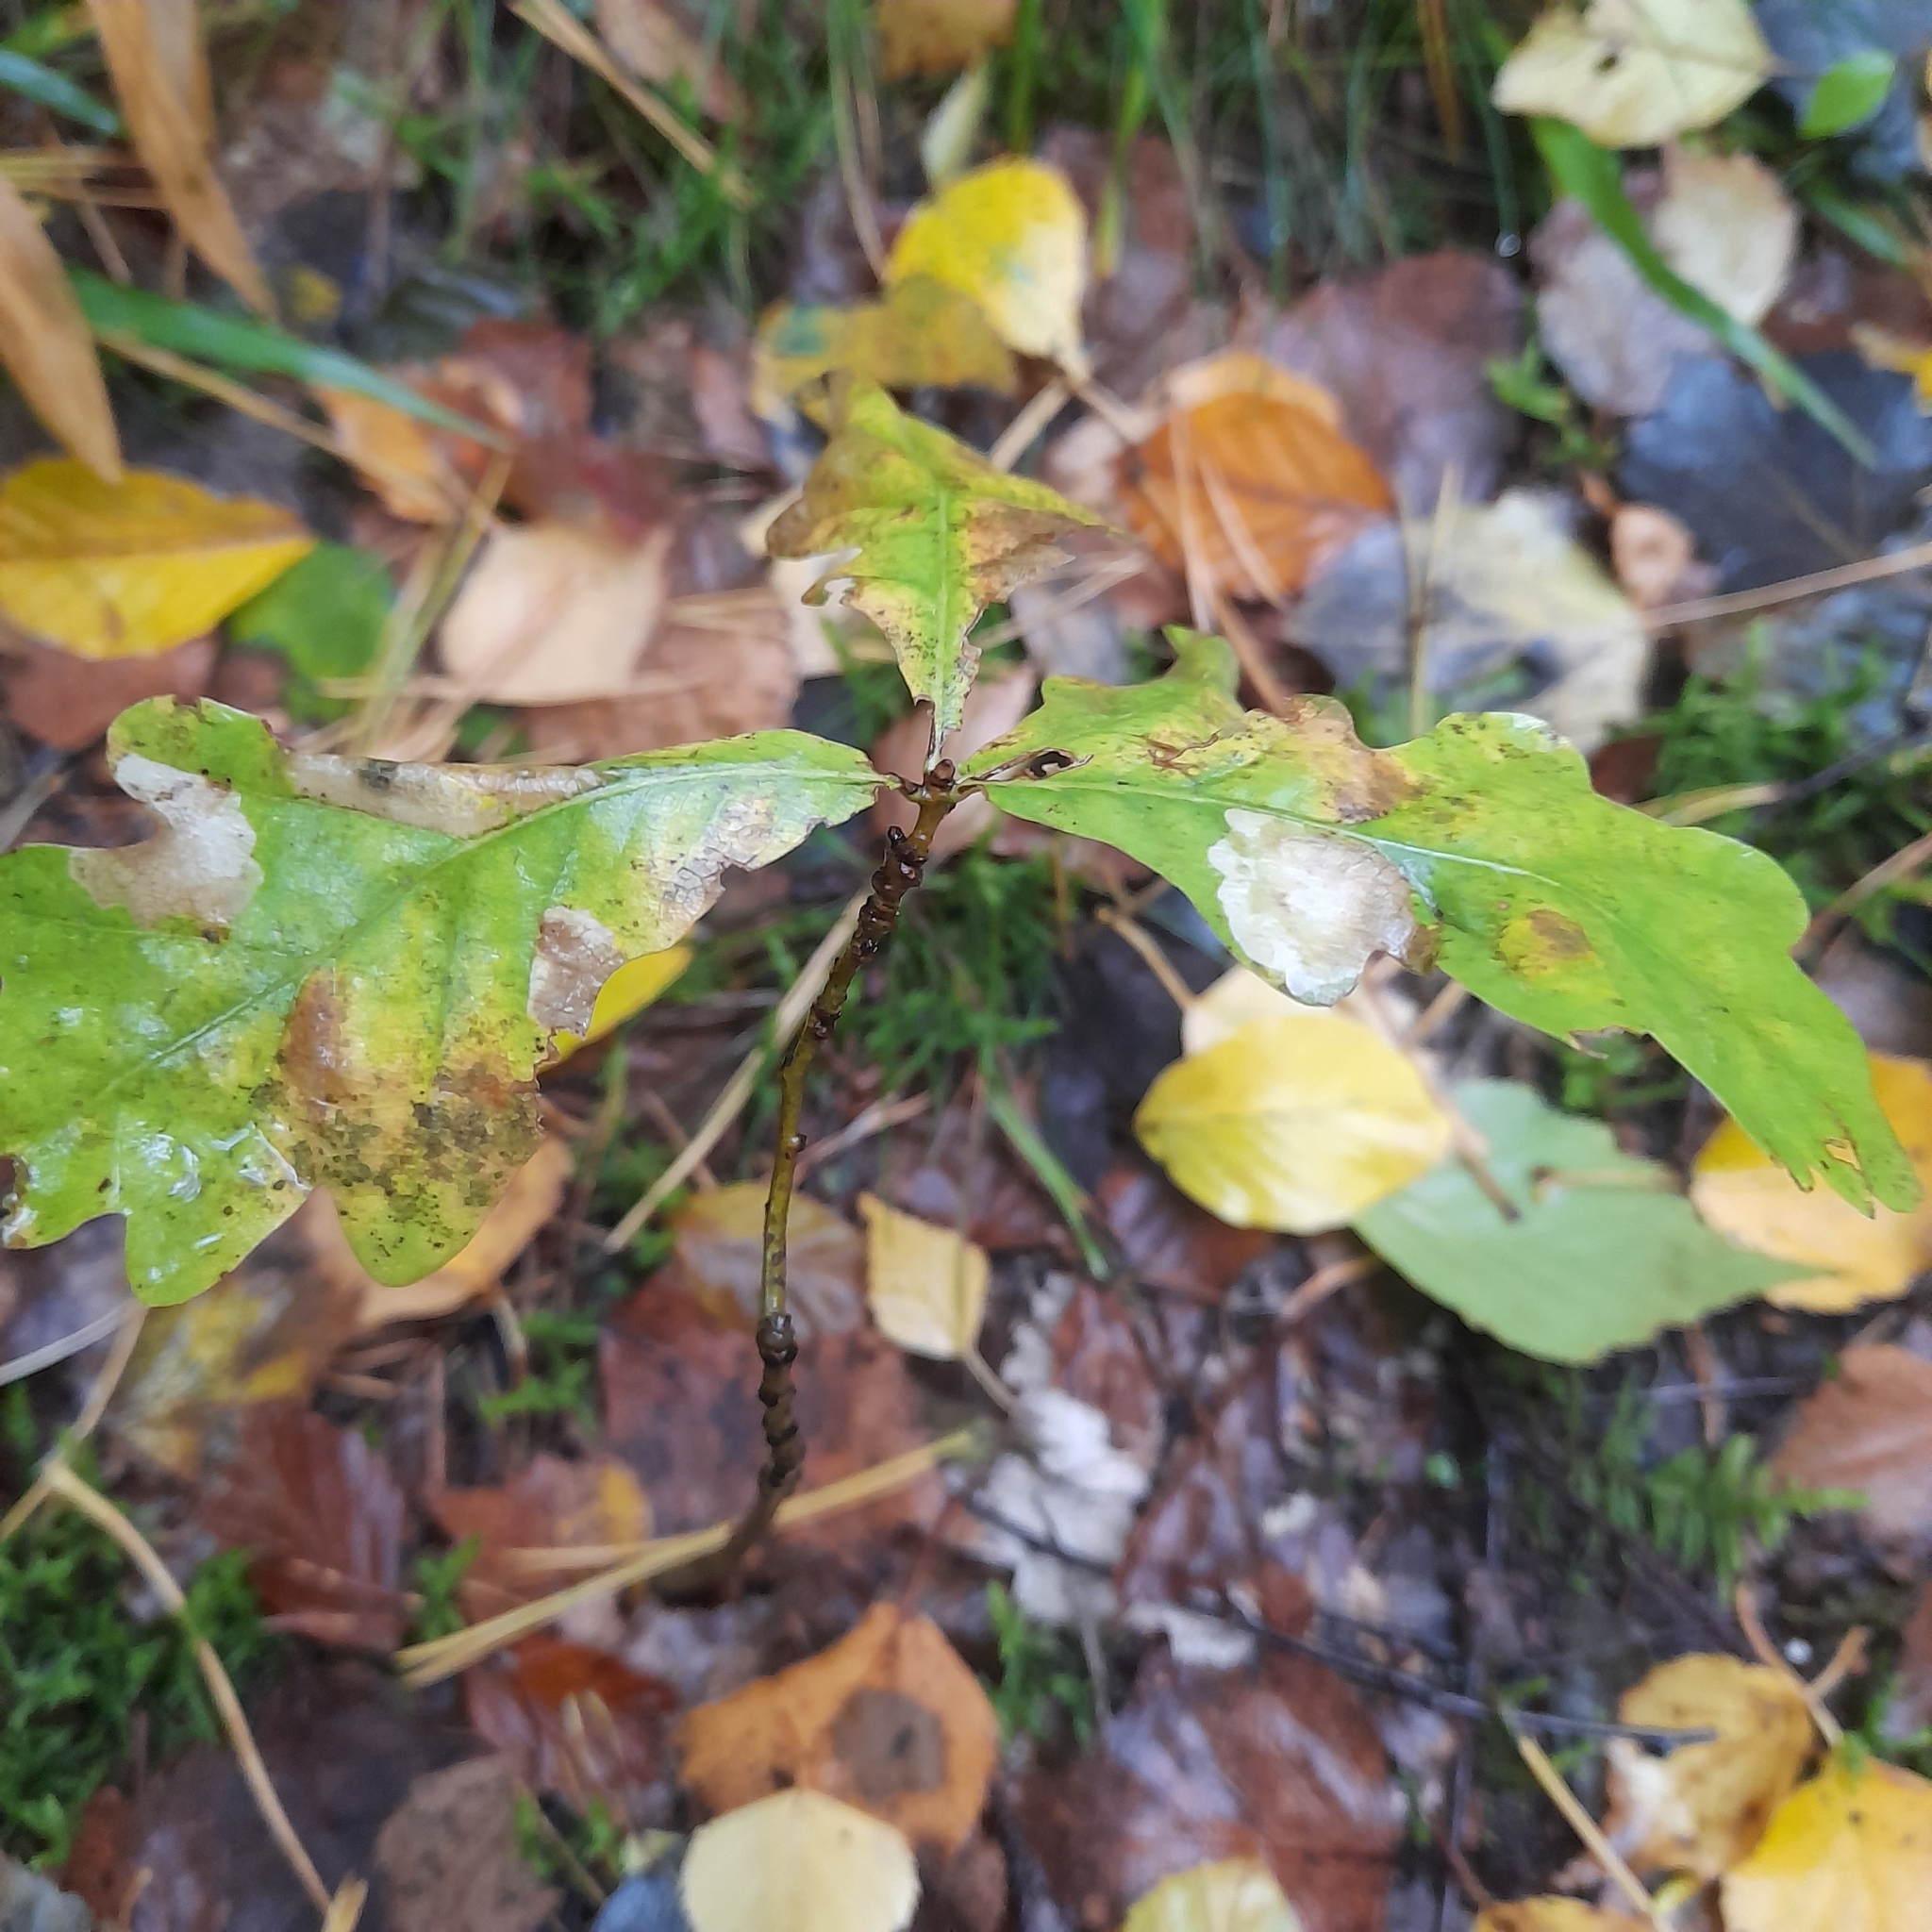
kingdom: Plantae
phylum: Tracheophyta
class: Magnoliopsida
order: Fagales
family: Fagaceae
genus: Quercus
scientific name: Quercus robur
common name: Pedunculate oak
